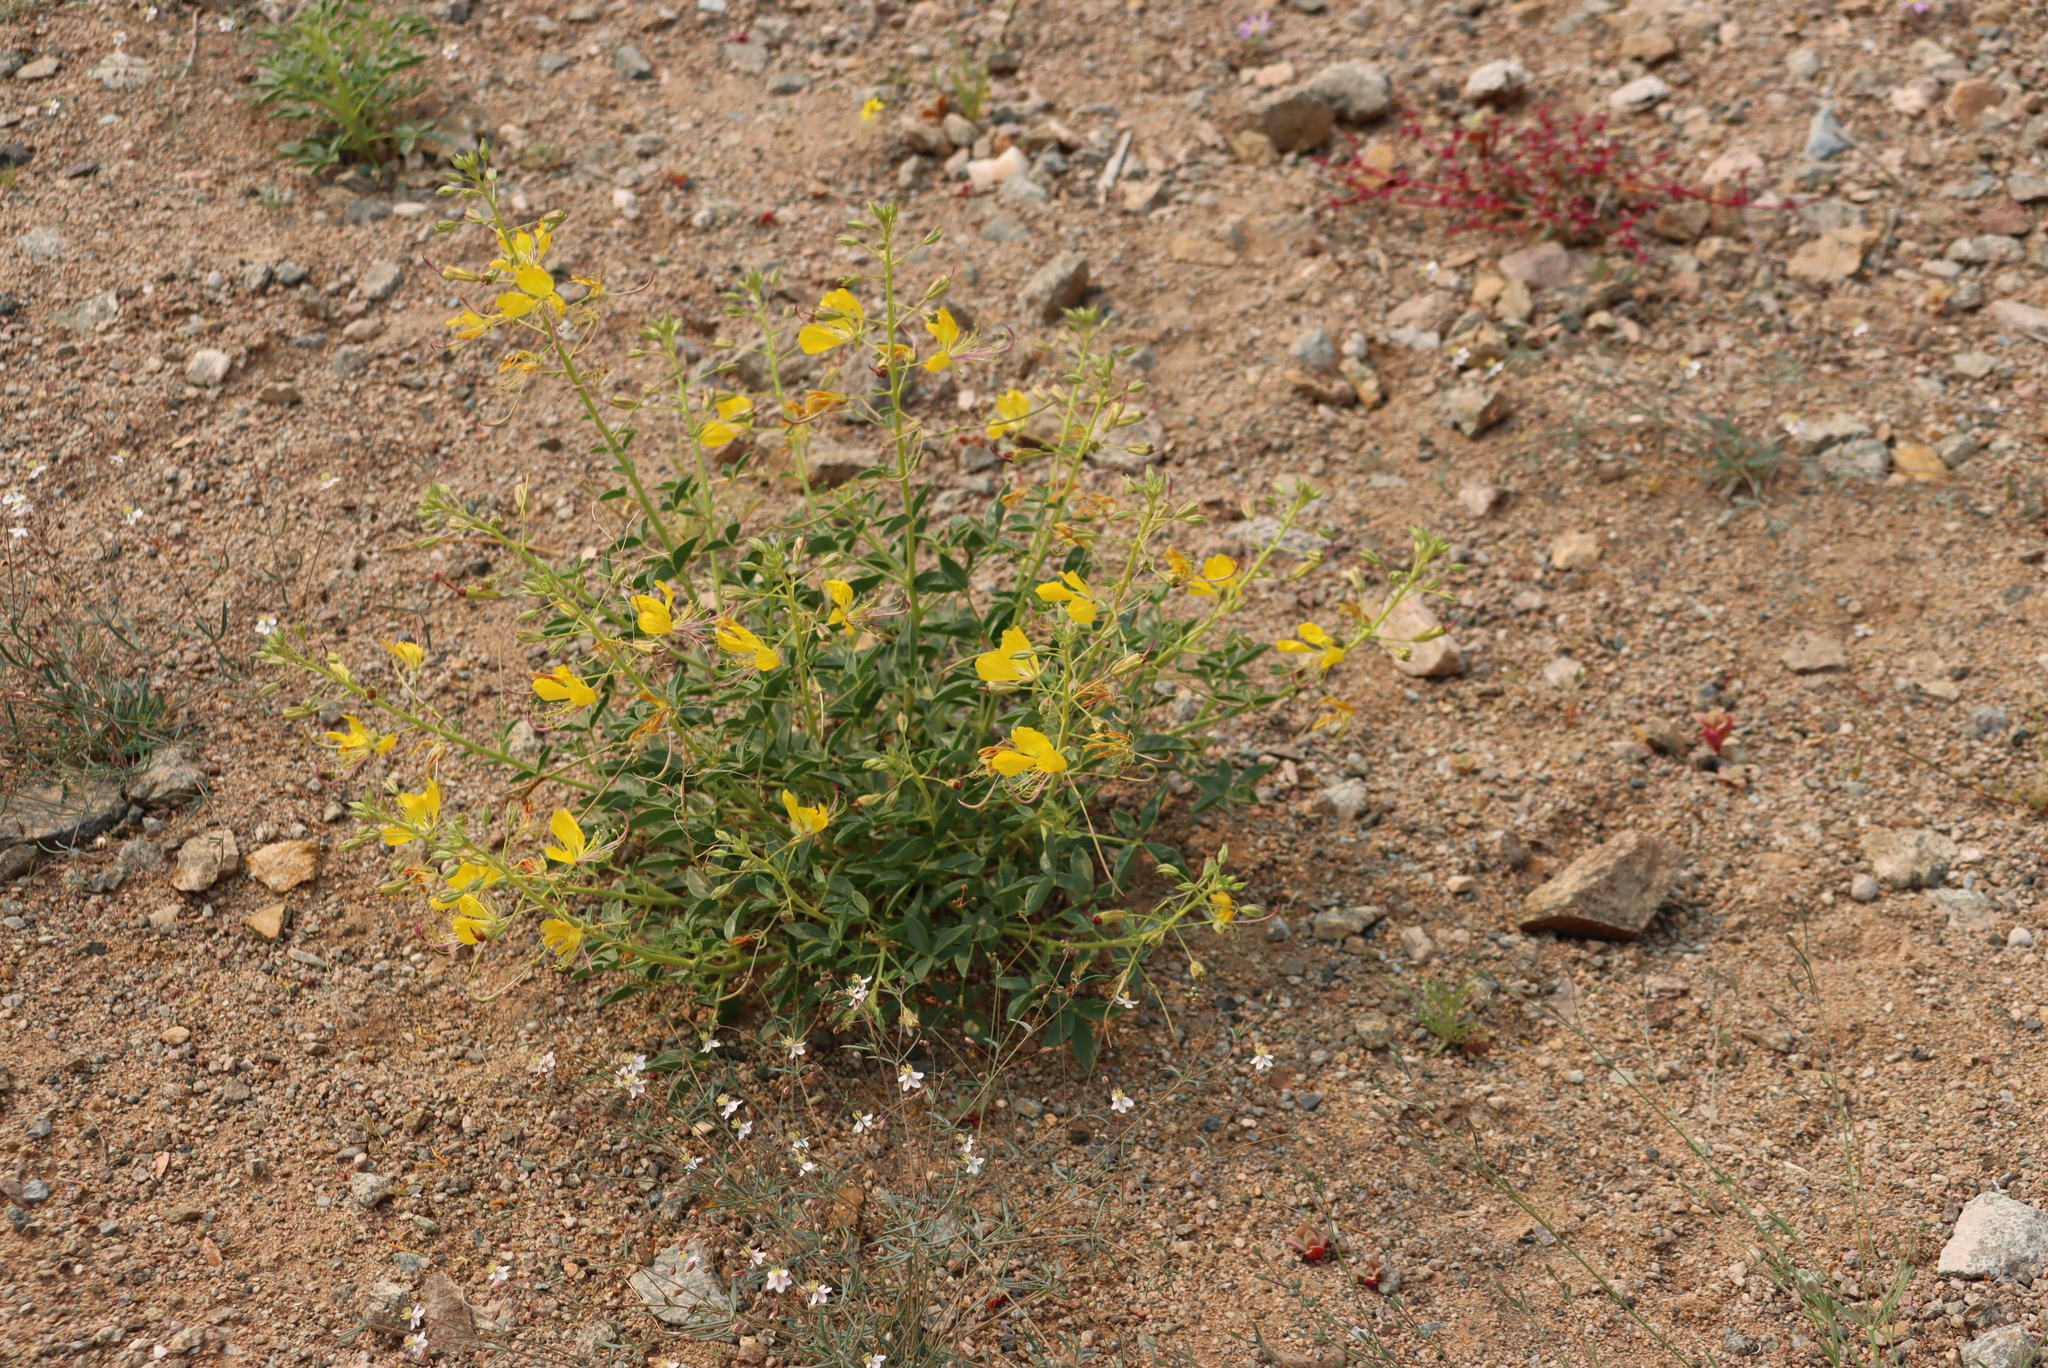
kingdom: Plantae
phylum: Tracheophyta
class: Magnoliopsida
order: Brassicales
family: Cleomaceae
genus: Cleome
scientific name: Cleome foliosa
